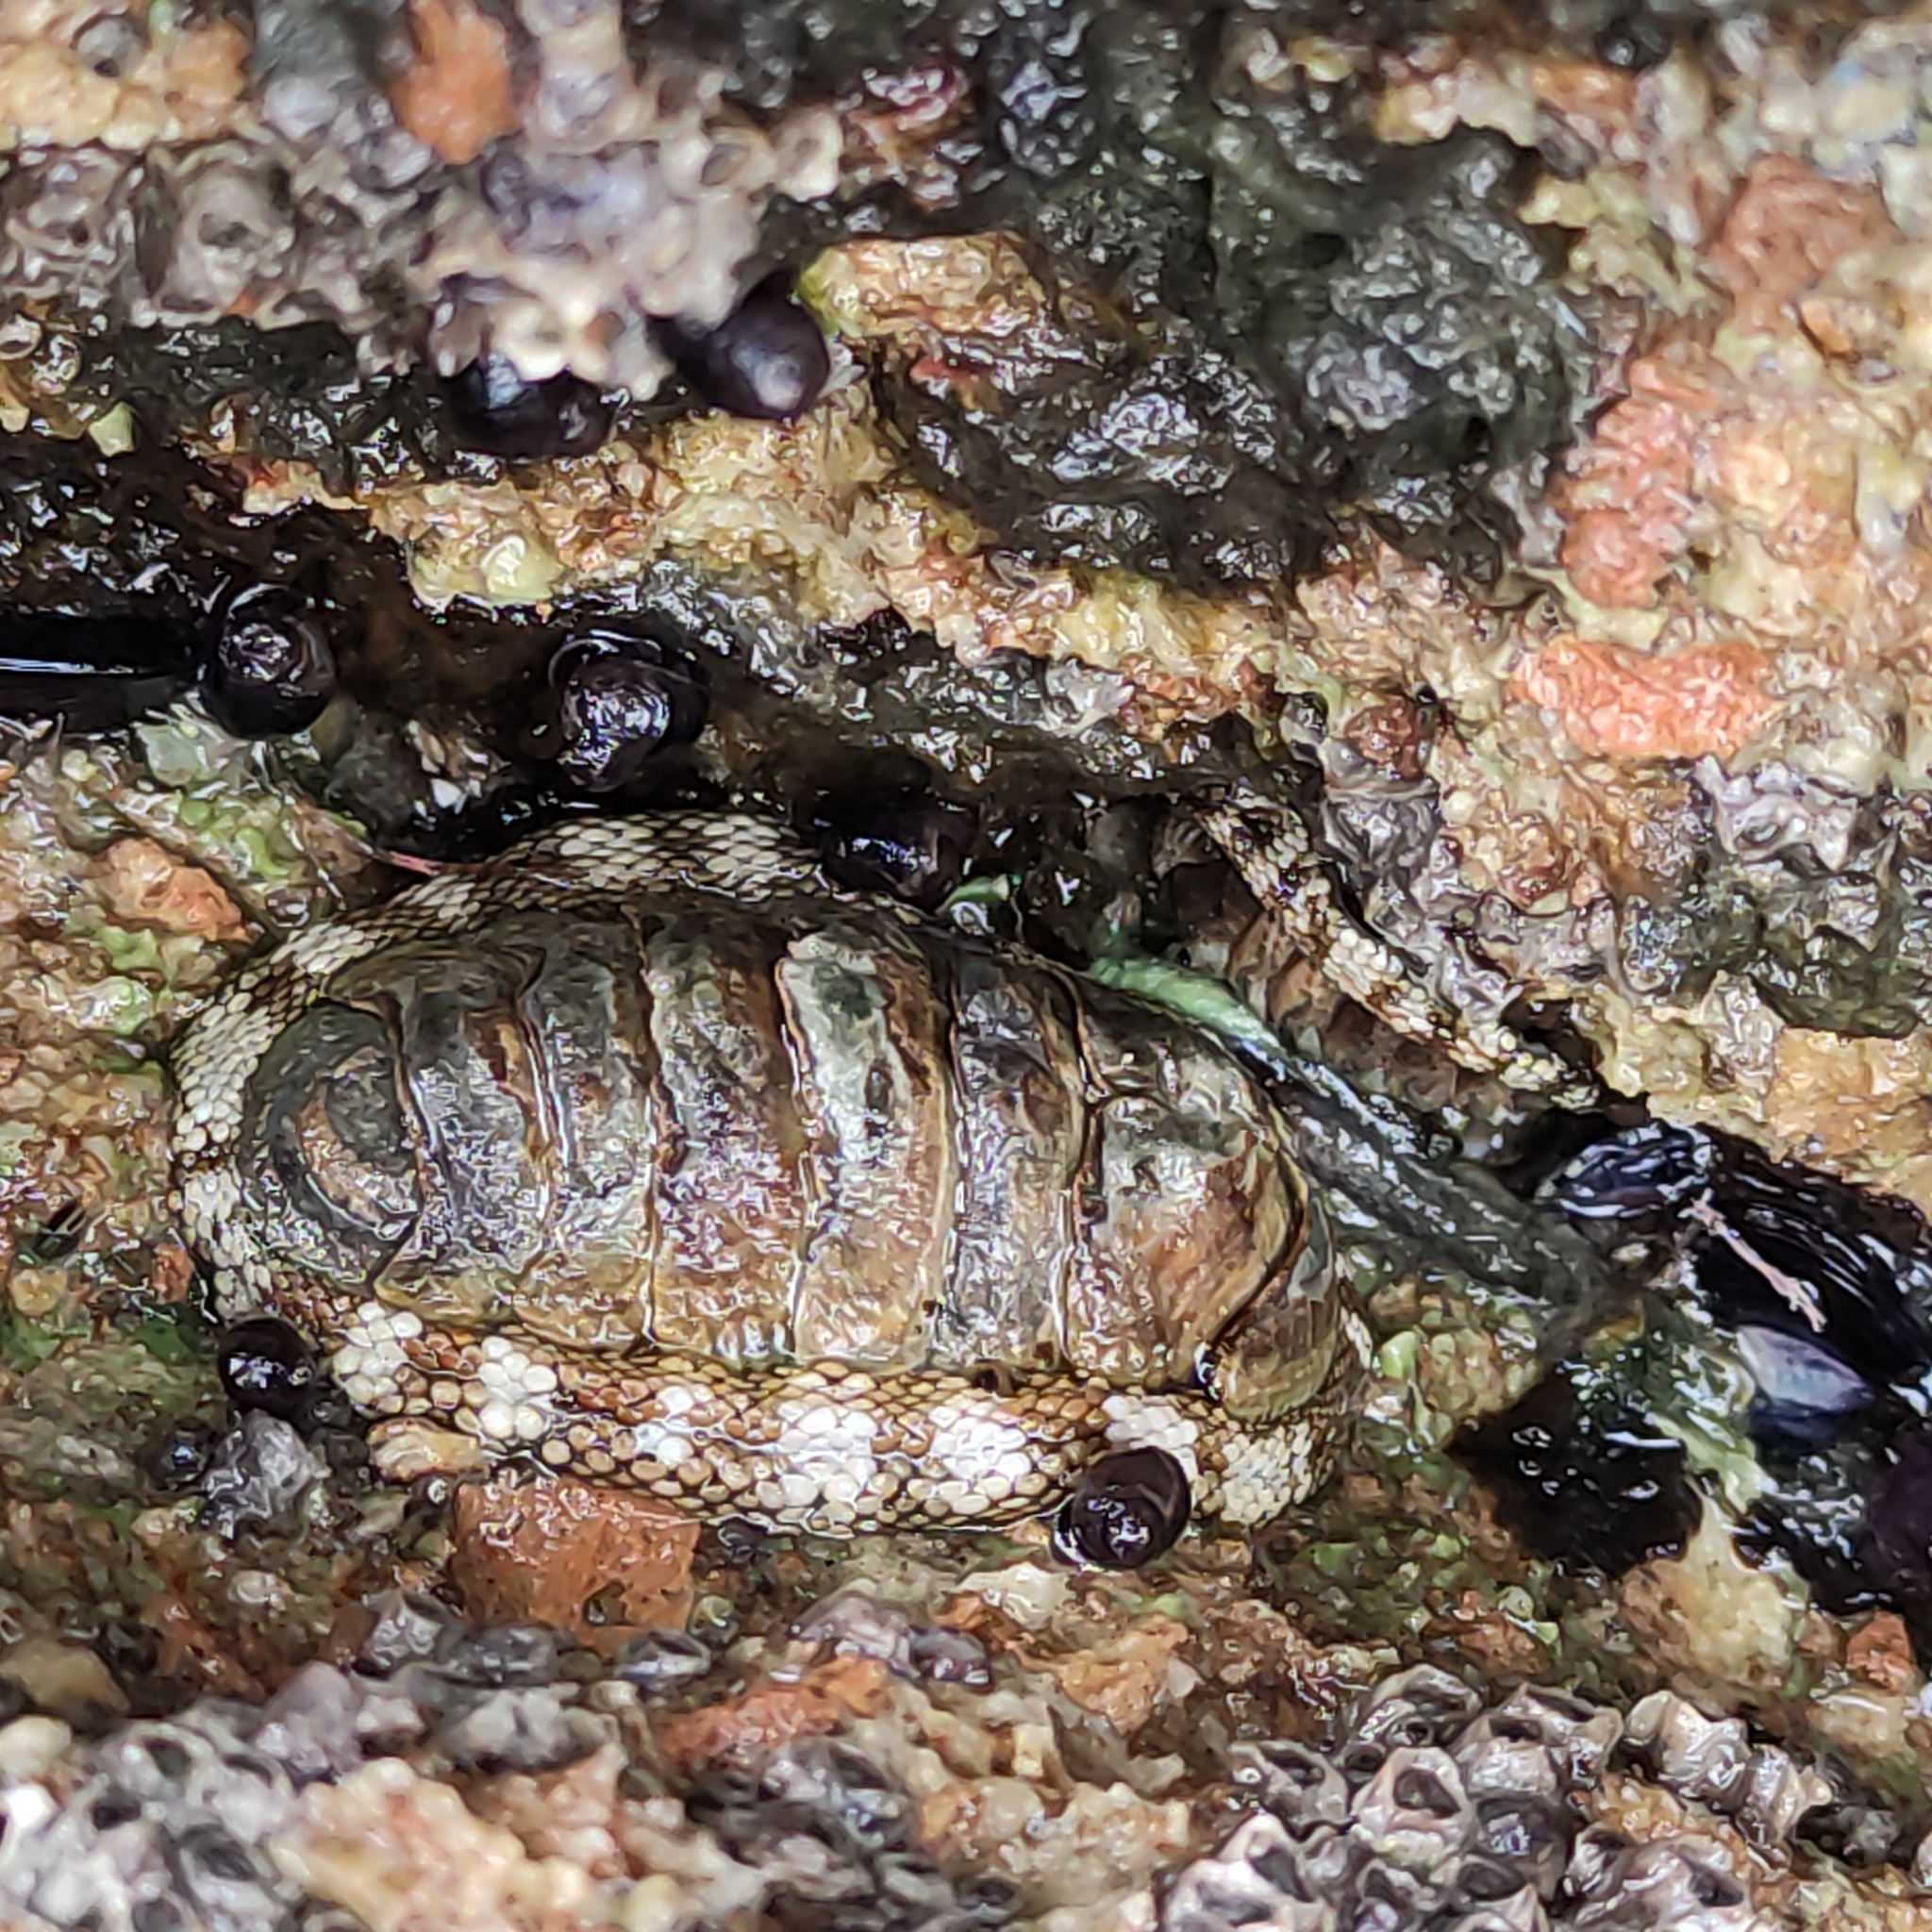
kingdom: Animalia
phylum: Mollusca
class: Polyplacophora
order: Chitonida
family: Chitonidae
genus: Sypharochiton
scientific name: Sypharochiton pelliserpentis
